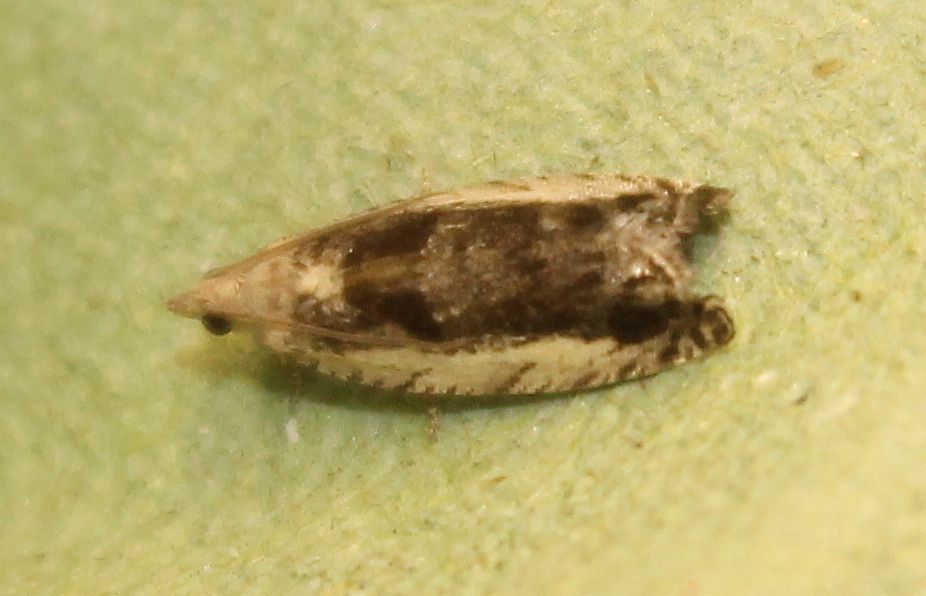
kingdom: Animalia
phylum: Arthropoda
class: Insecta
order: Lepidoptera
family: Tortricidae
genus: Epinotia
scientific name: Epinotia ramella
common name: Small birch bell
